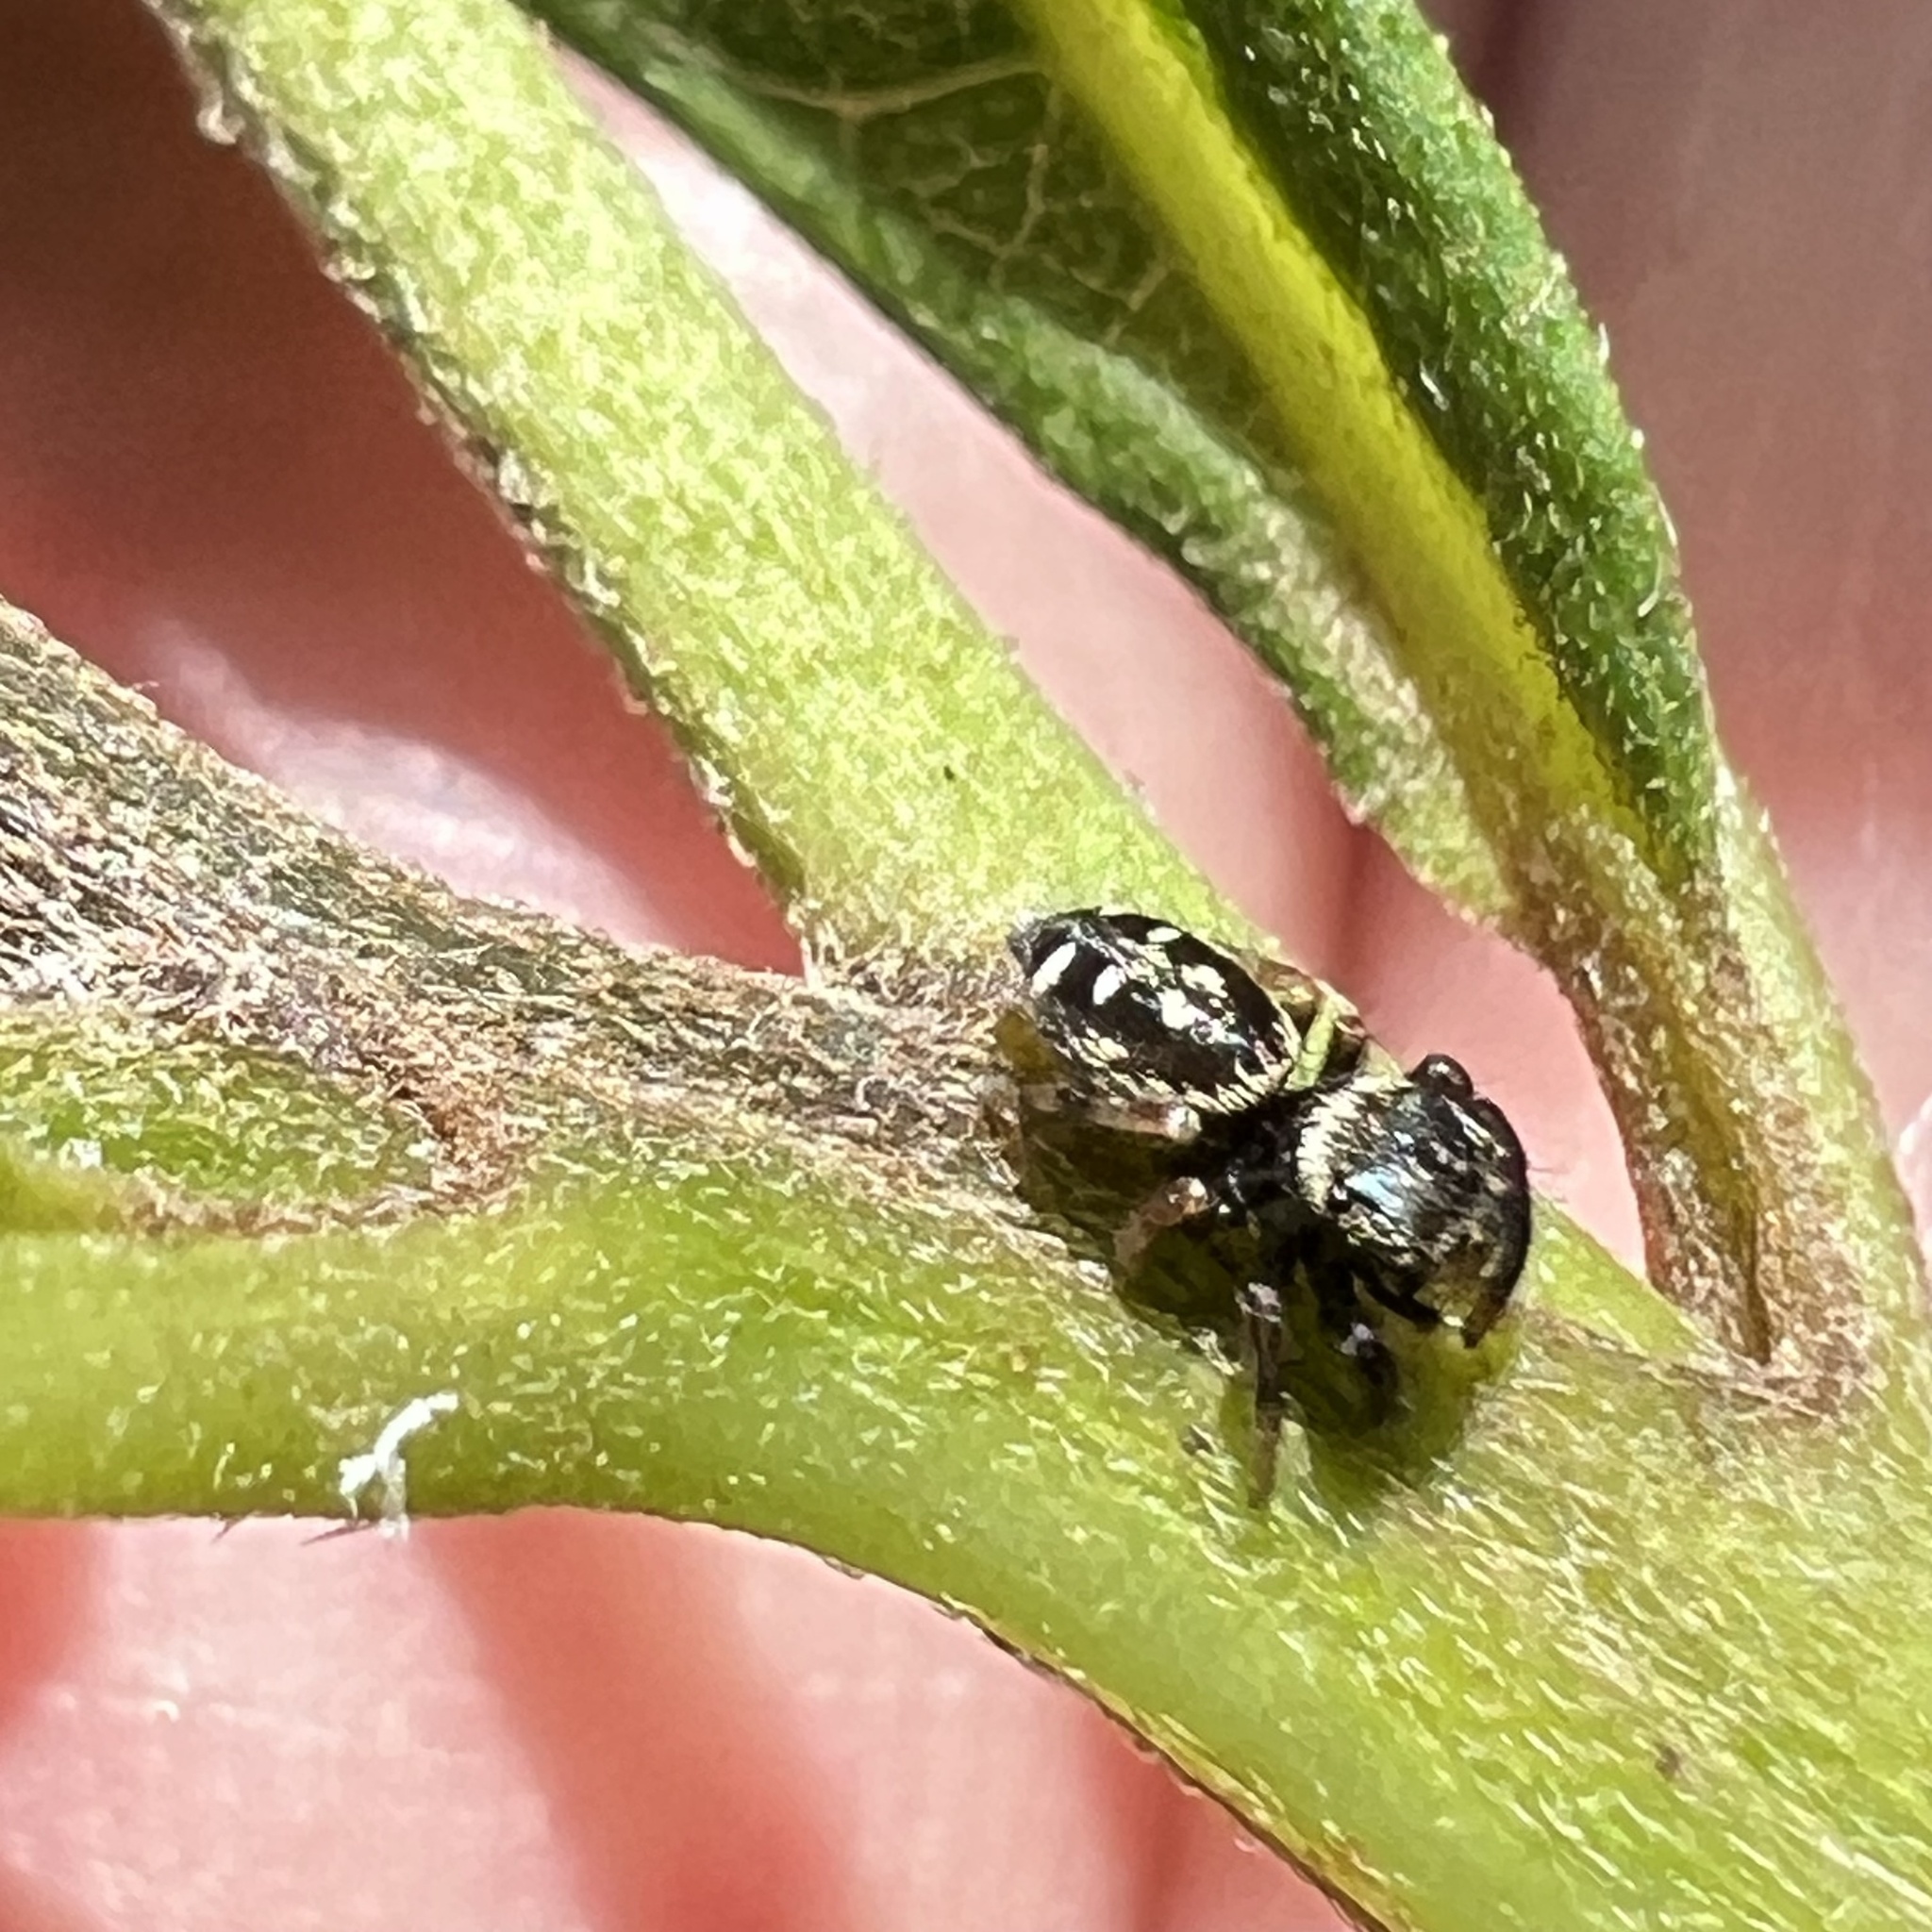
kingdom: Animalia
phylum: Arthropoda
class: Arachnida
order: Araneae
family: Salticidae
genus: Paraphidippus
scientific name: Paraphidippus aurantius
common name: Jumping spiders
